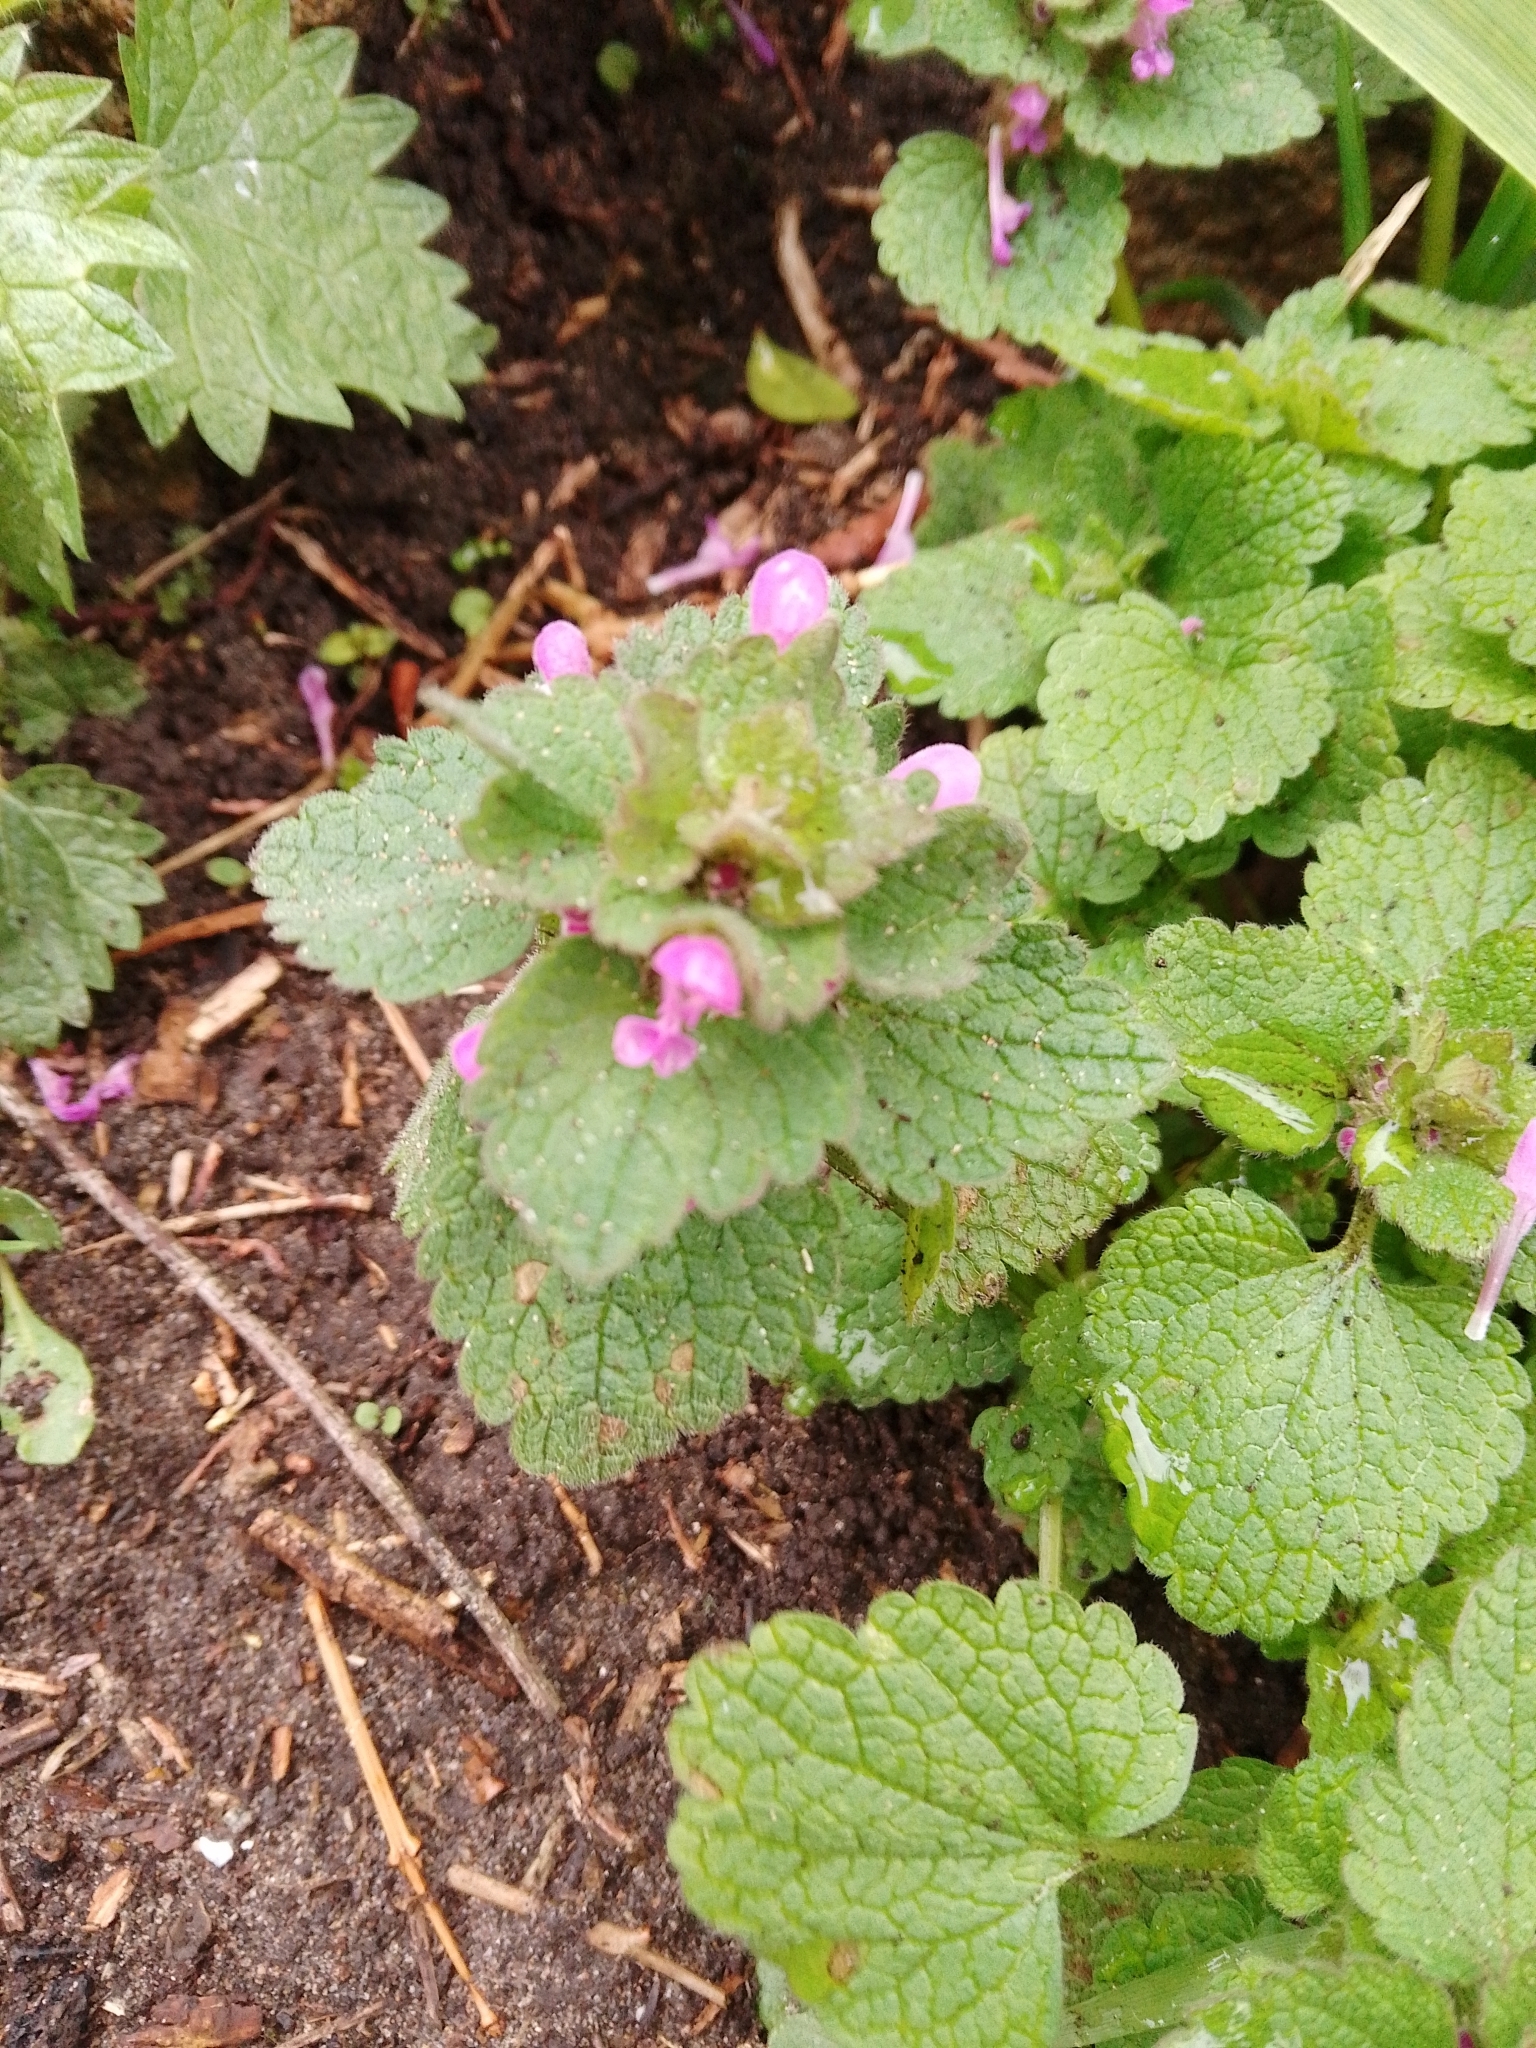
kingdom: Plantae
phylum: Tracheophyta
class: Magnoliopsida
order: Lamiales
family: Lamiaceae
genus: Lamium
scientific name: Lamium purpureum
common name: Red dead-nettle
